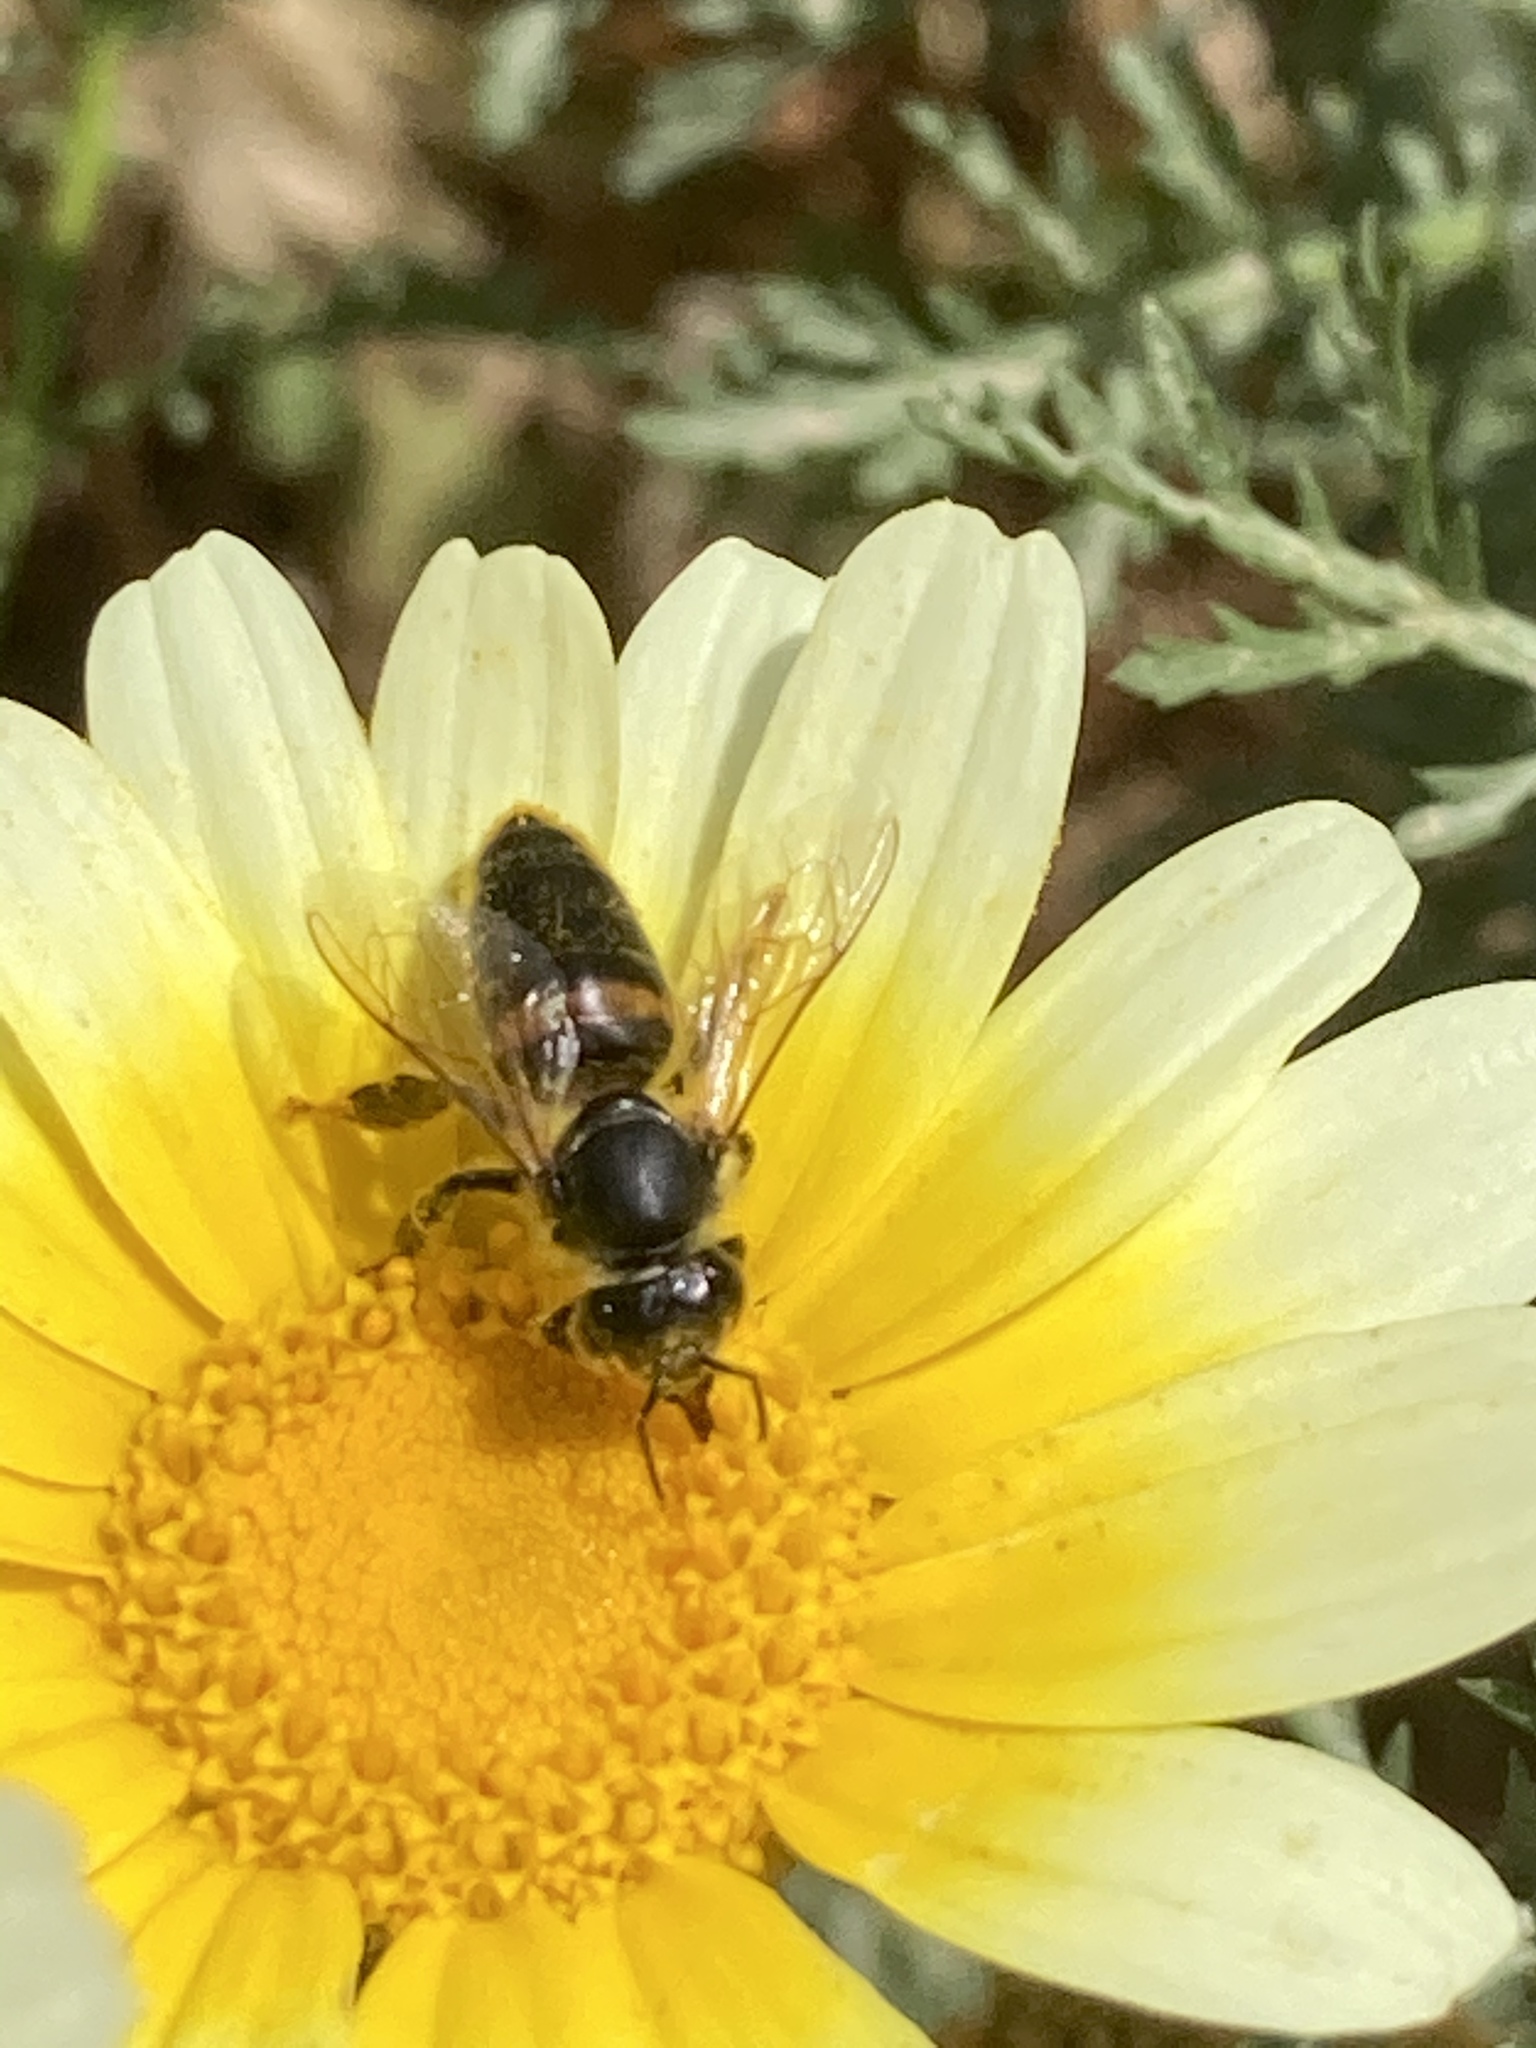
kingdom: Animalia
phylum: Arthropoda
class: Insecta
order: Hymenoptera
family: Apidae
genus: Apis
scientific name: Apis mellifera
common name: Honey bee
